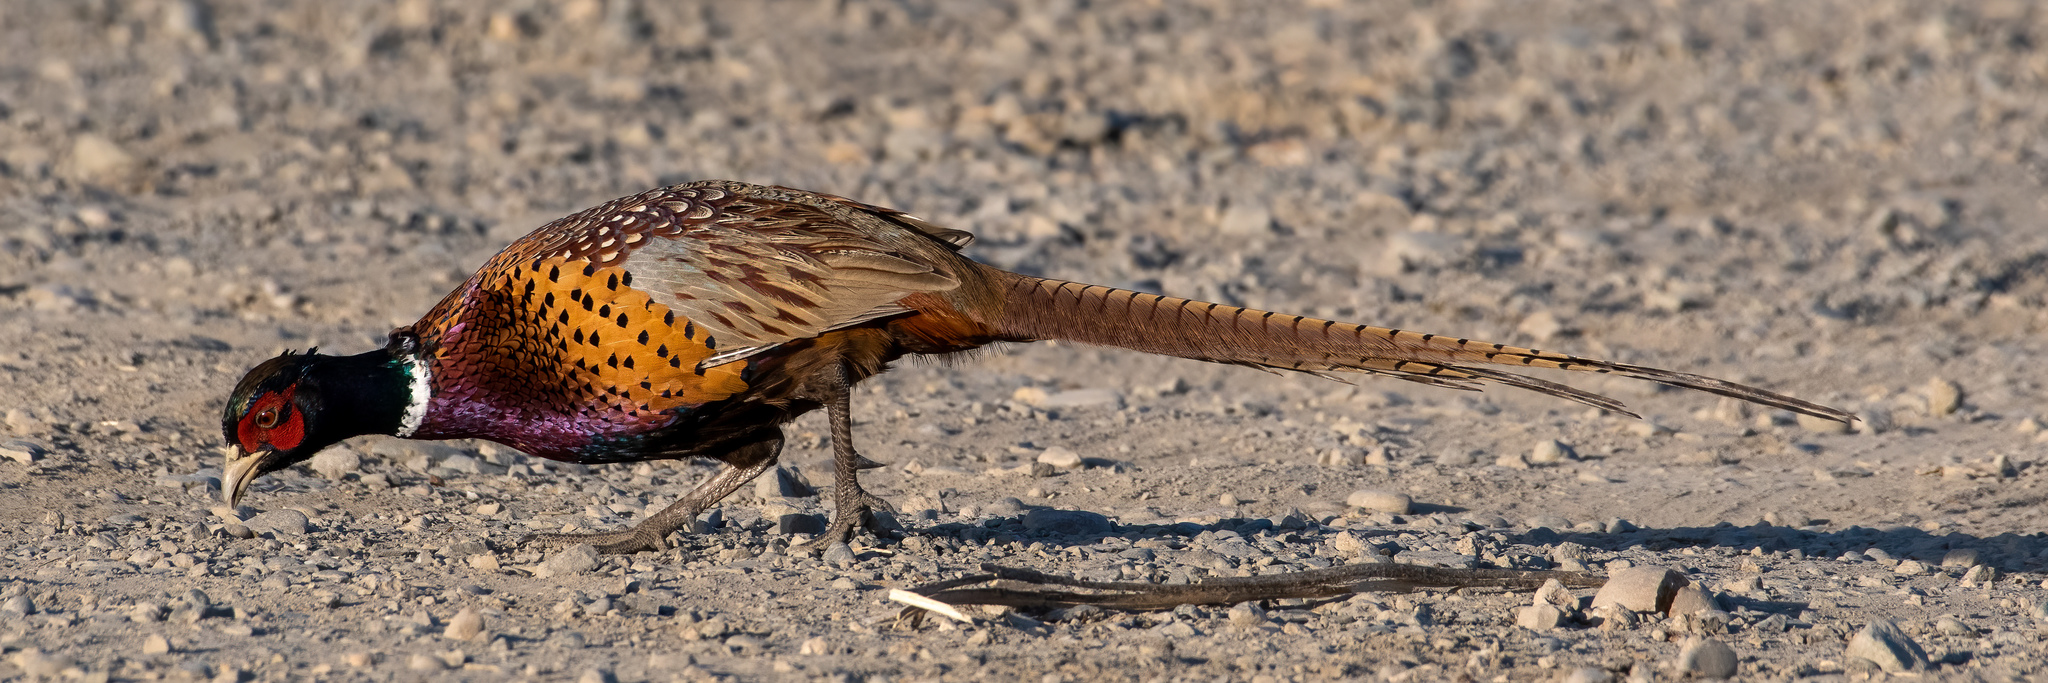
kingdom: Animalia
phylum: Chordata
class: Aves
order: Galliformes
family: Phasianidae
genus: Phasianus
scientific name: Phasianus colchicus
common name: Common pheasant
